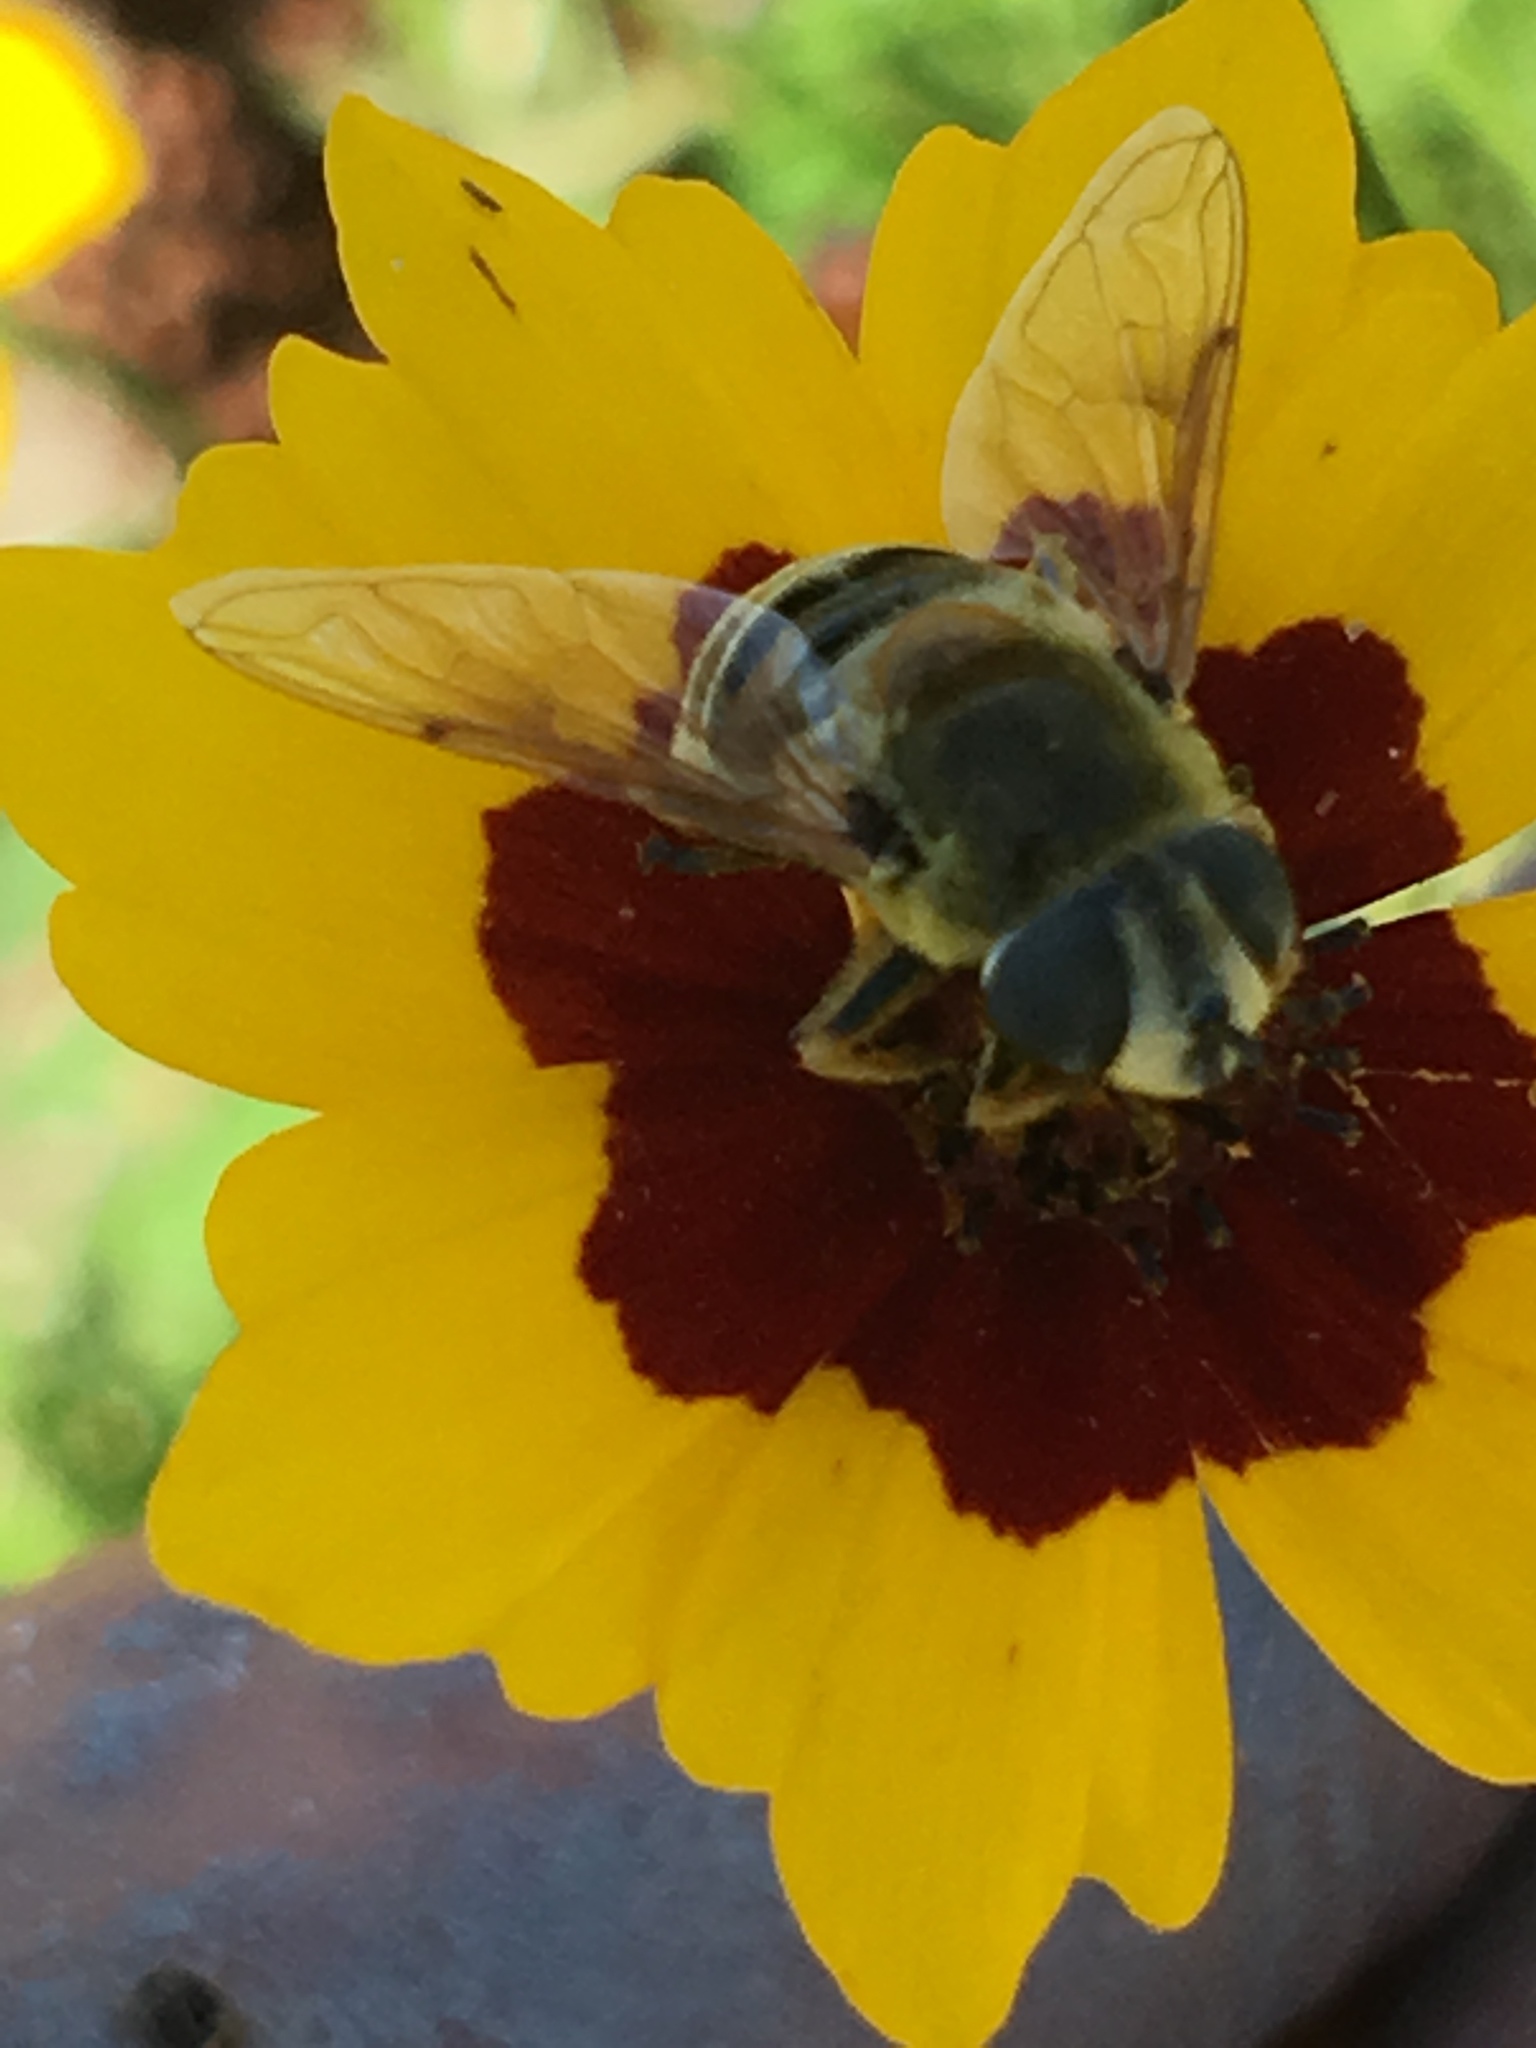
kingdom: Animalia
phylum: Arthropoda
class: Insecta
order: Diptera
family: Syrphidae
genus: Eristalis
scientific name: Eristalis stipator
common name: Yellow-shouldered drone fly
